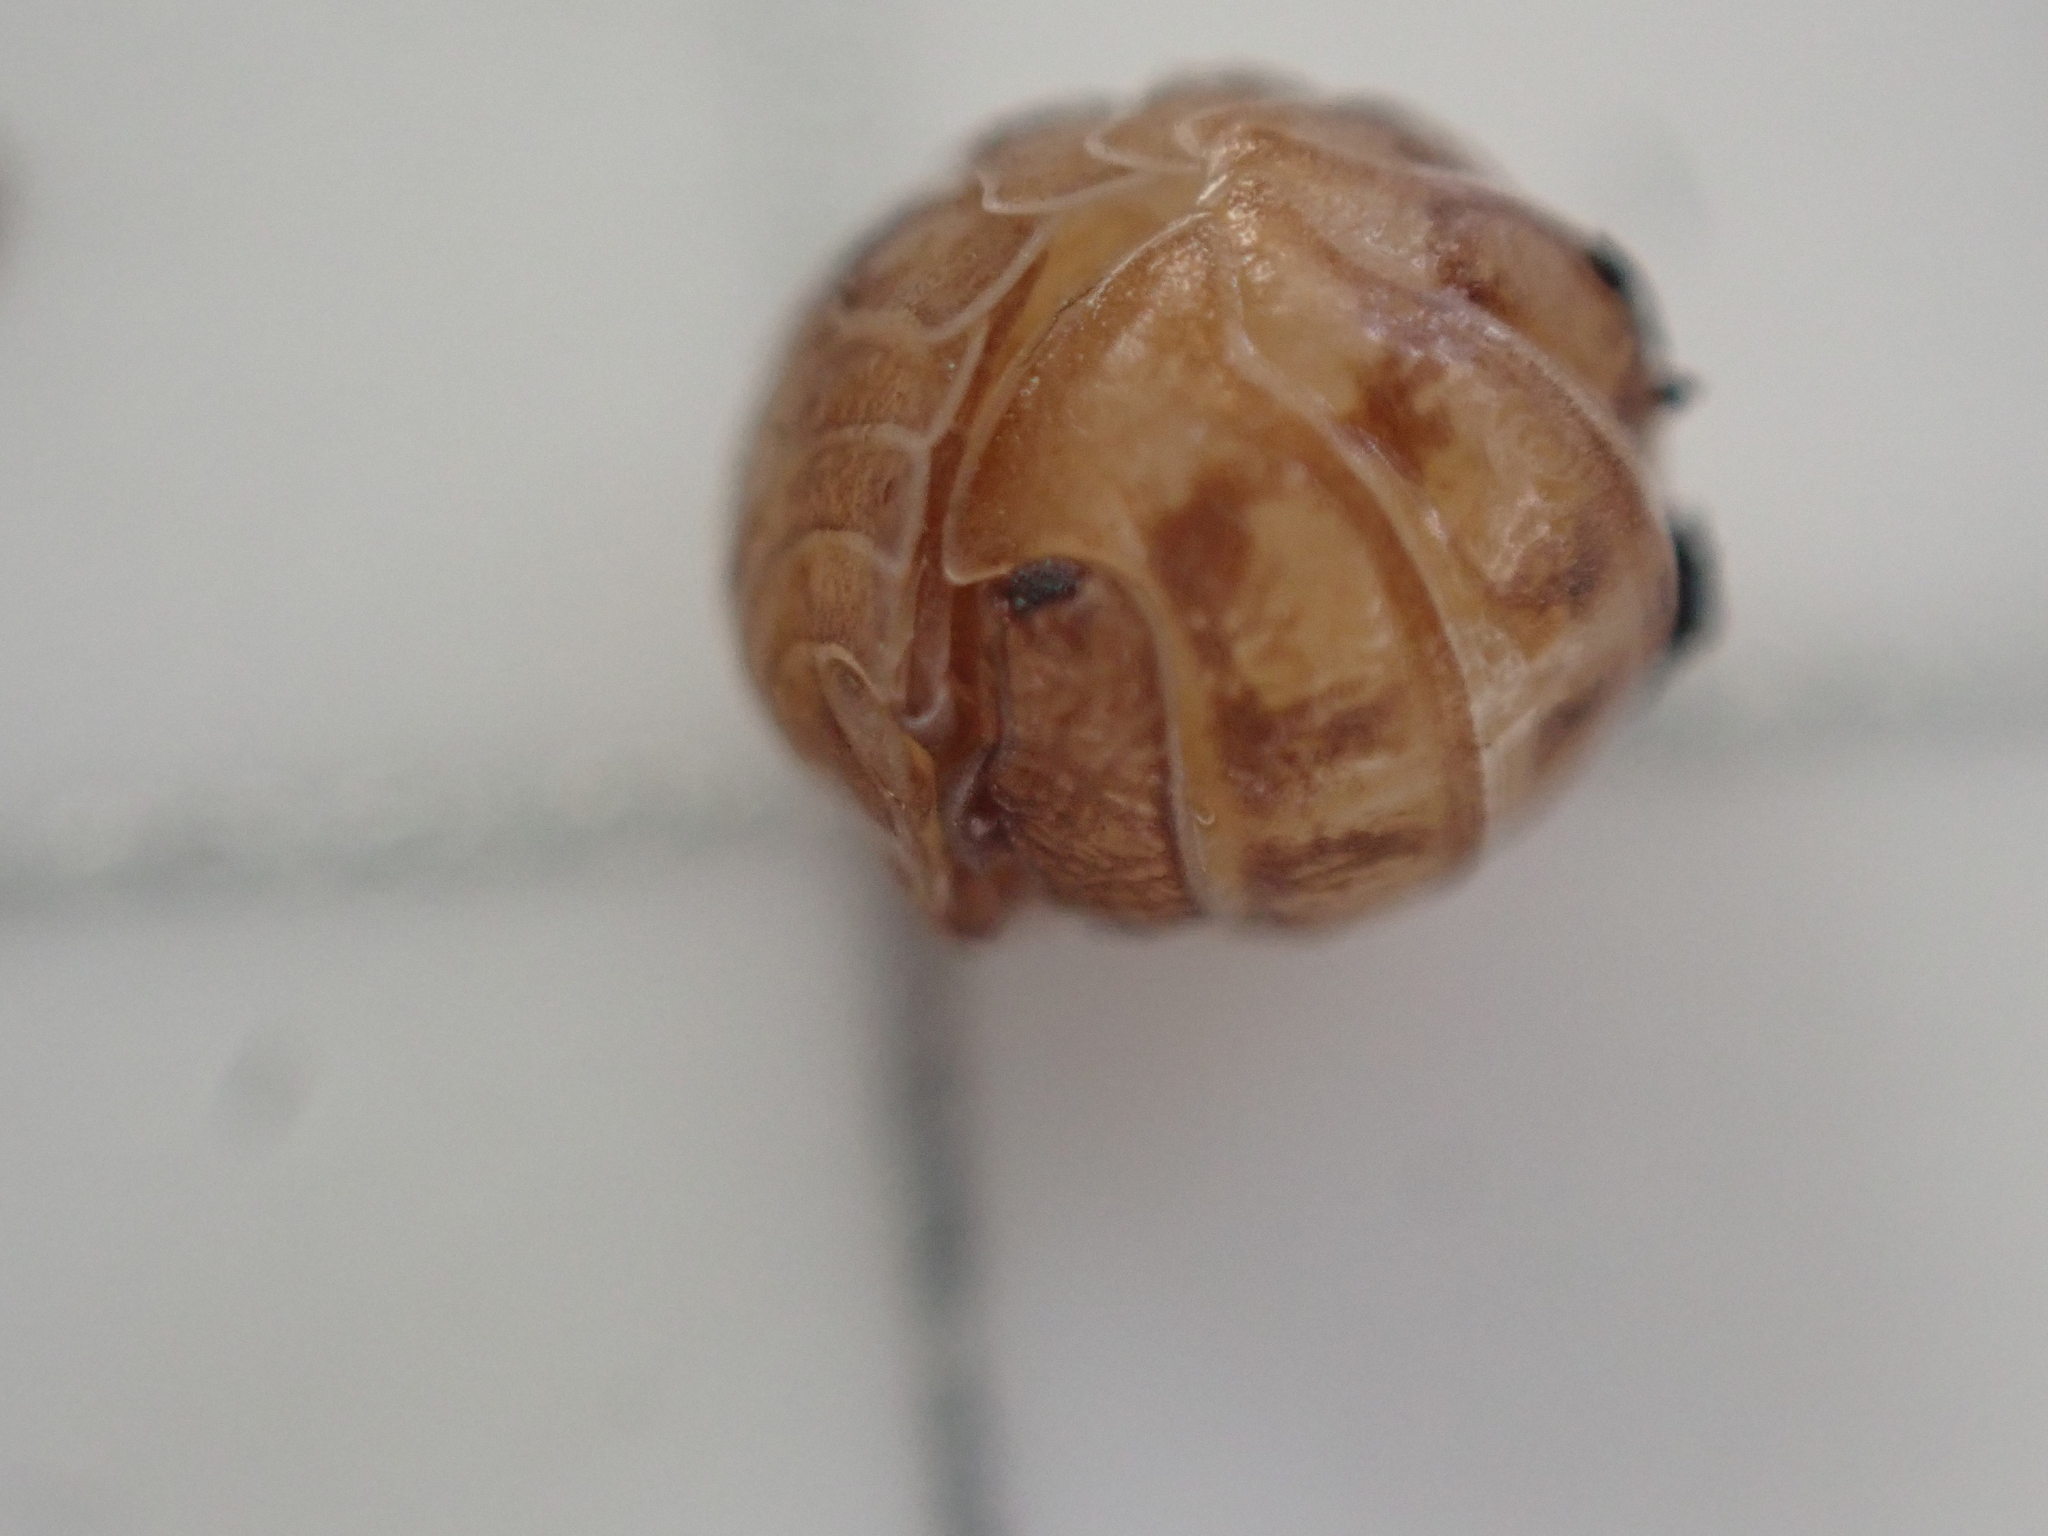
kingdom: Animalia
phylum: Arthropoda
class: Malacostraca
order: Isopoda
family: Armadillidiidae
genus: Armadillidium
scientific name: Armadillidium nasatum
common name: Isopod
